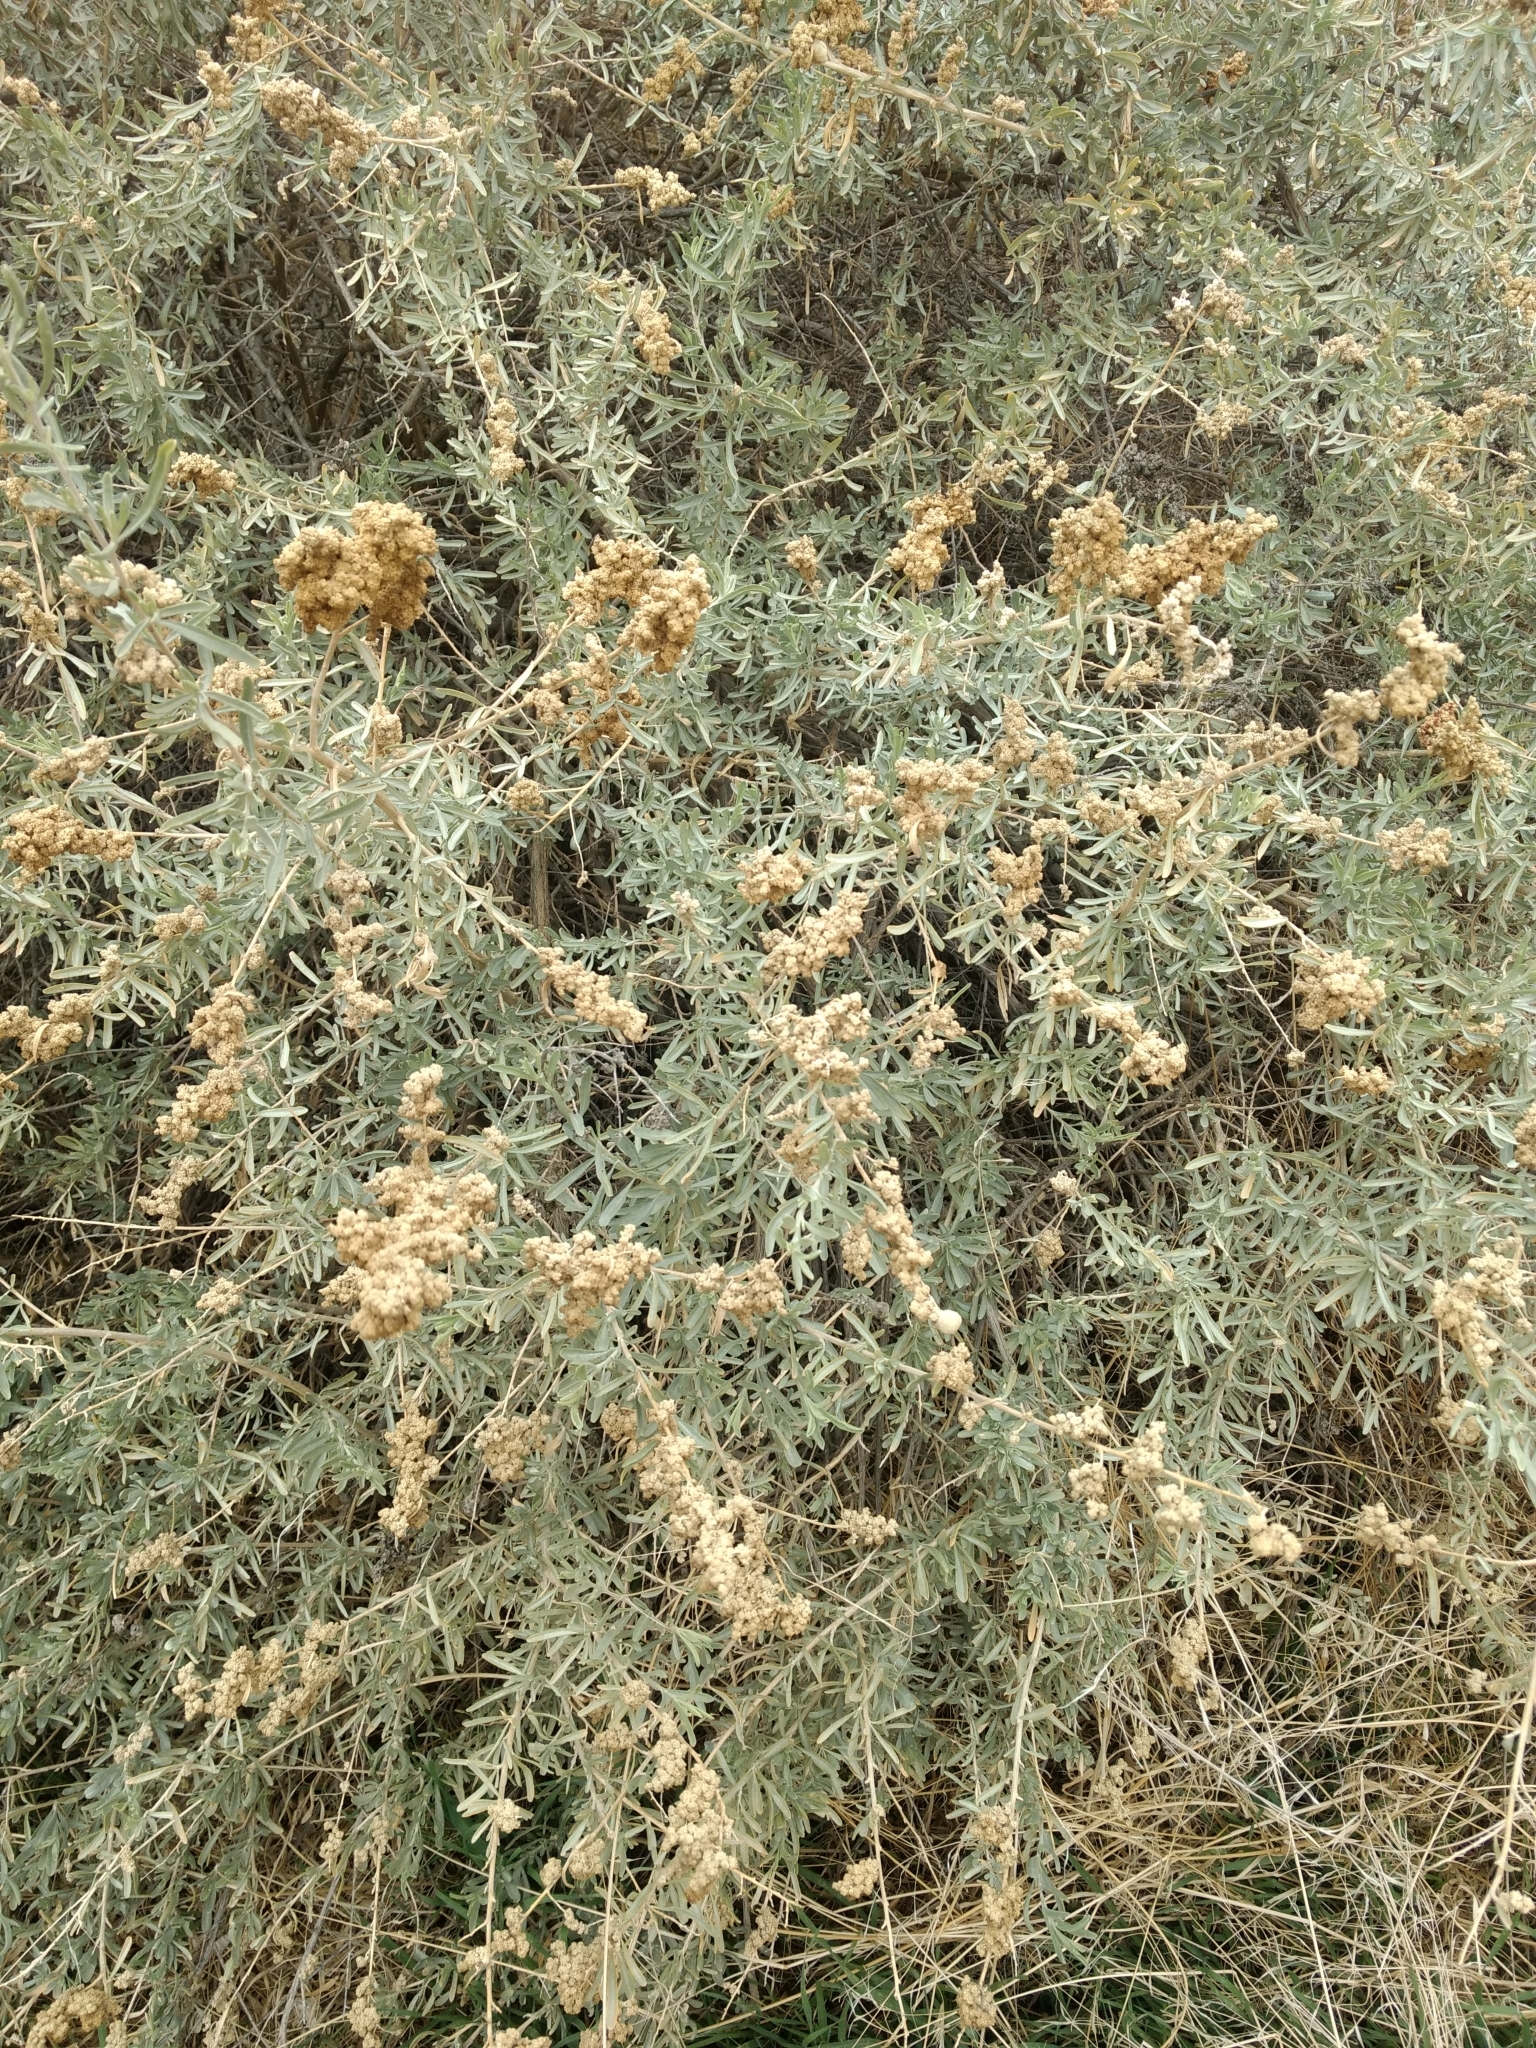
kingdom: Plantae
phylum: Tracheophyta
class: Magnoliopsida
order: Caryophyllales
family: Amaranthaceae
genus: Atriplex
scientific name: Atriplex canescens
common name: Four-wing saltbush
